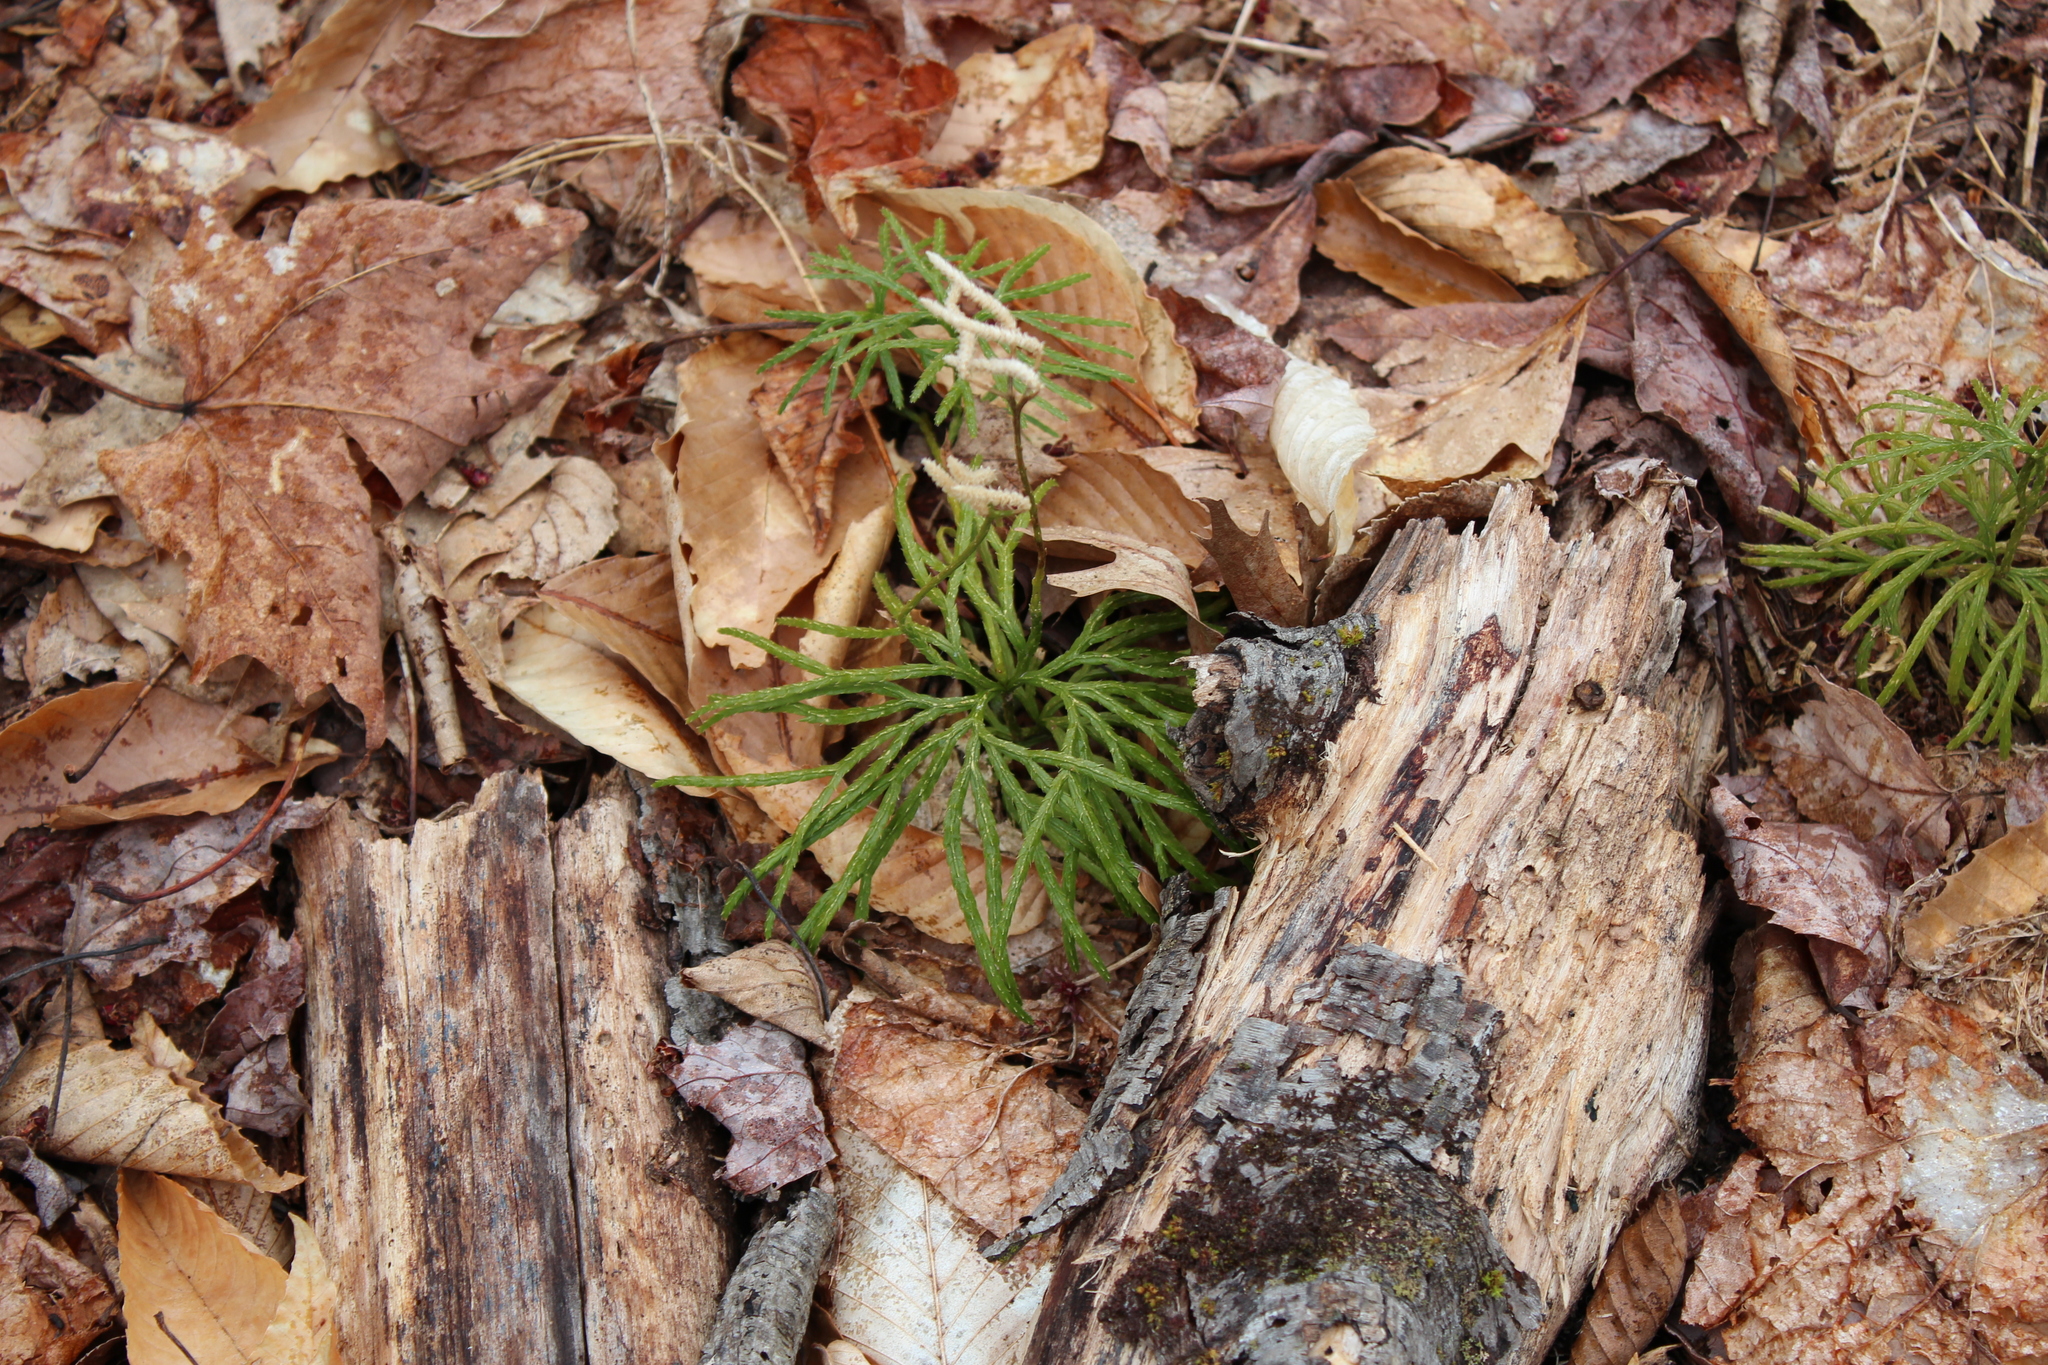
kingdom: Plantae
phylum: Tracheophyta
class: Lycopodiopsida
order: Lycopodiales
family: Lycopodiaceae
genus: Diphasiastrum
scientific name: Diphasiastrum digitatum
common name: Southern running-pine
